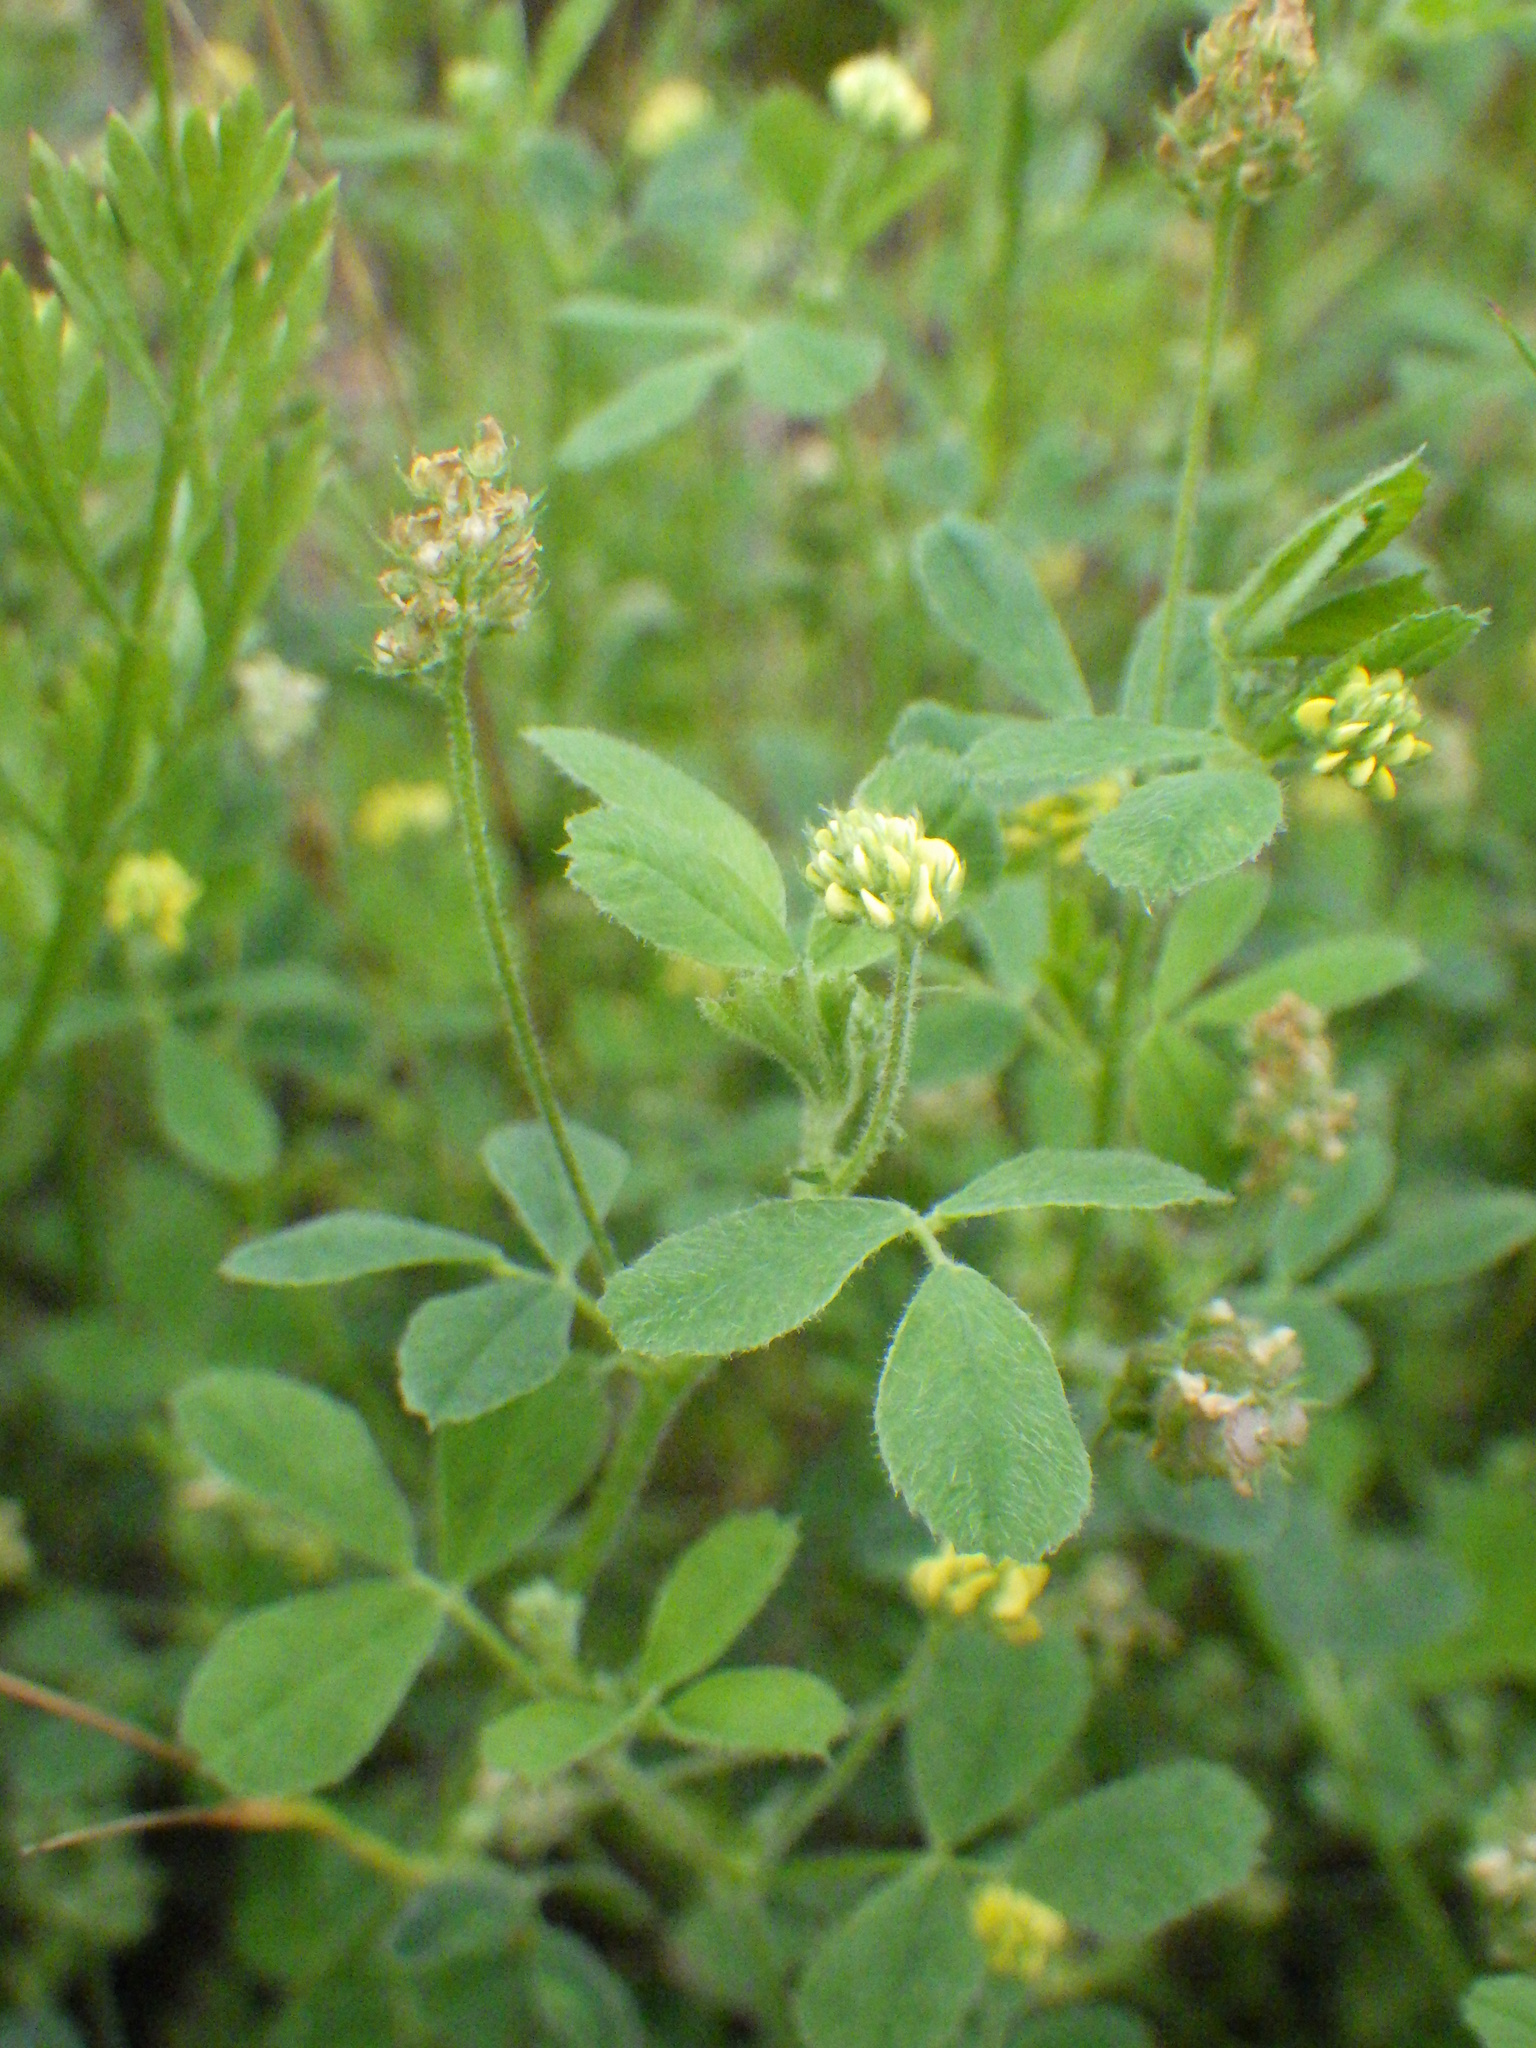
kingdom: Plantae
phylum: Tracheophyta
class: Magnoliopsida
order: Fabales
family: Fabaceae
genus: Medicago
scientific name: Medicago lupulina
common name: Black medick
